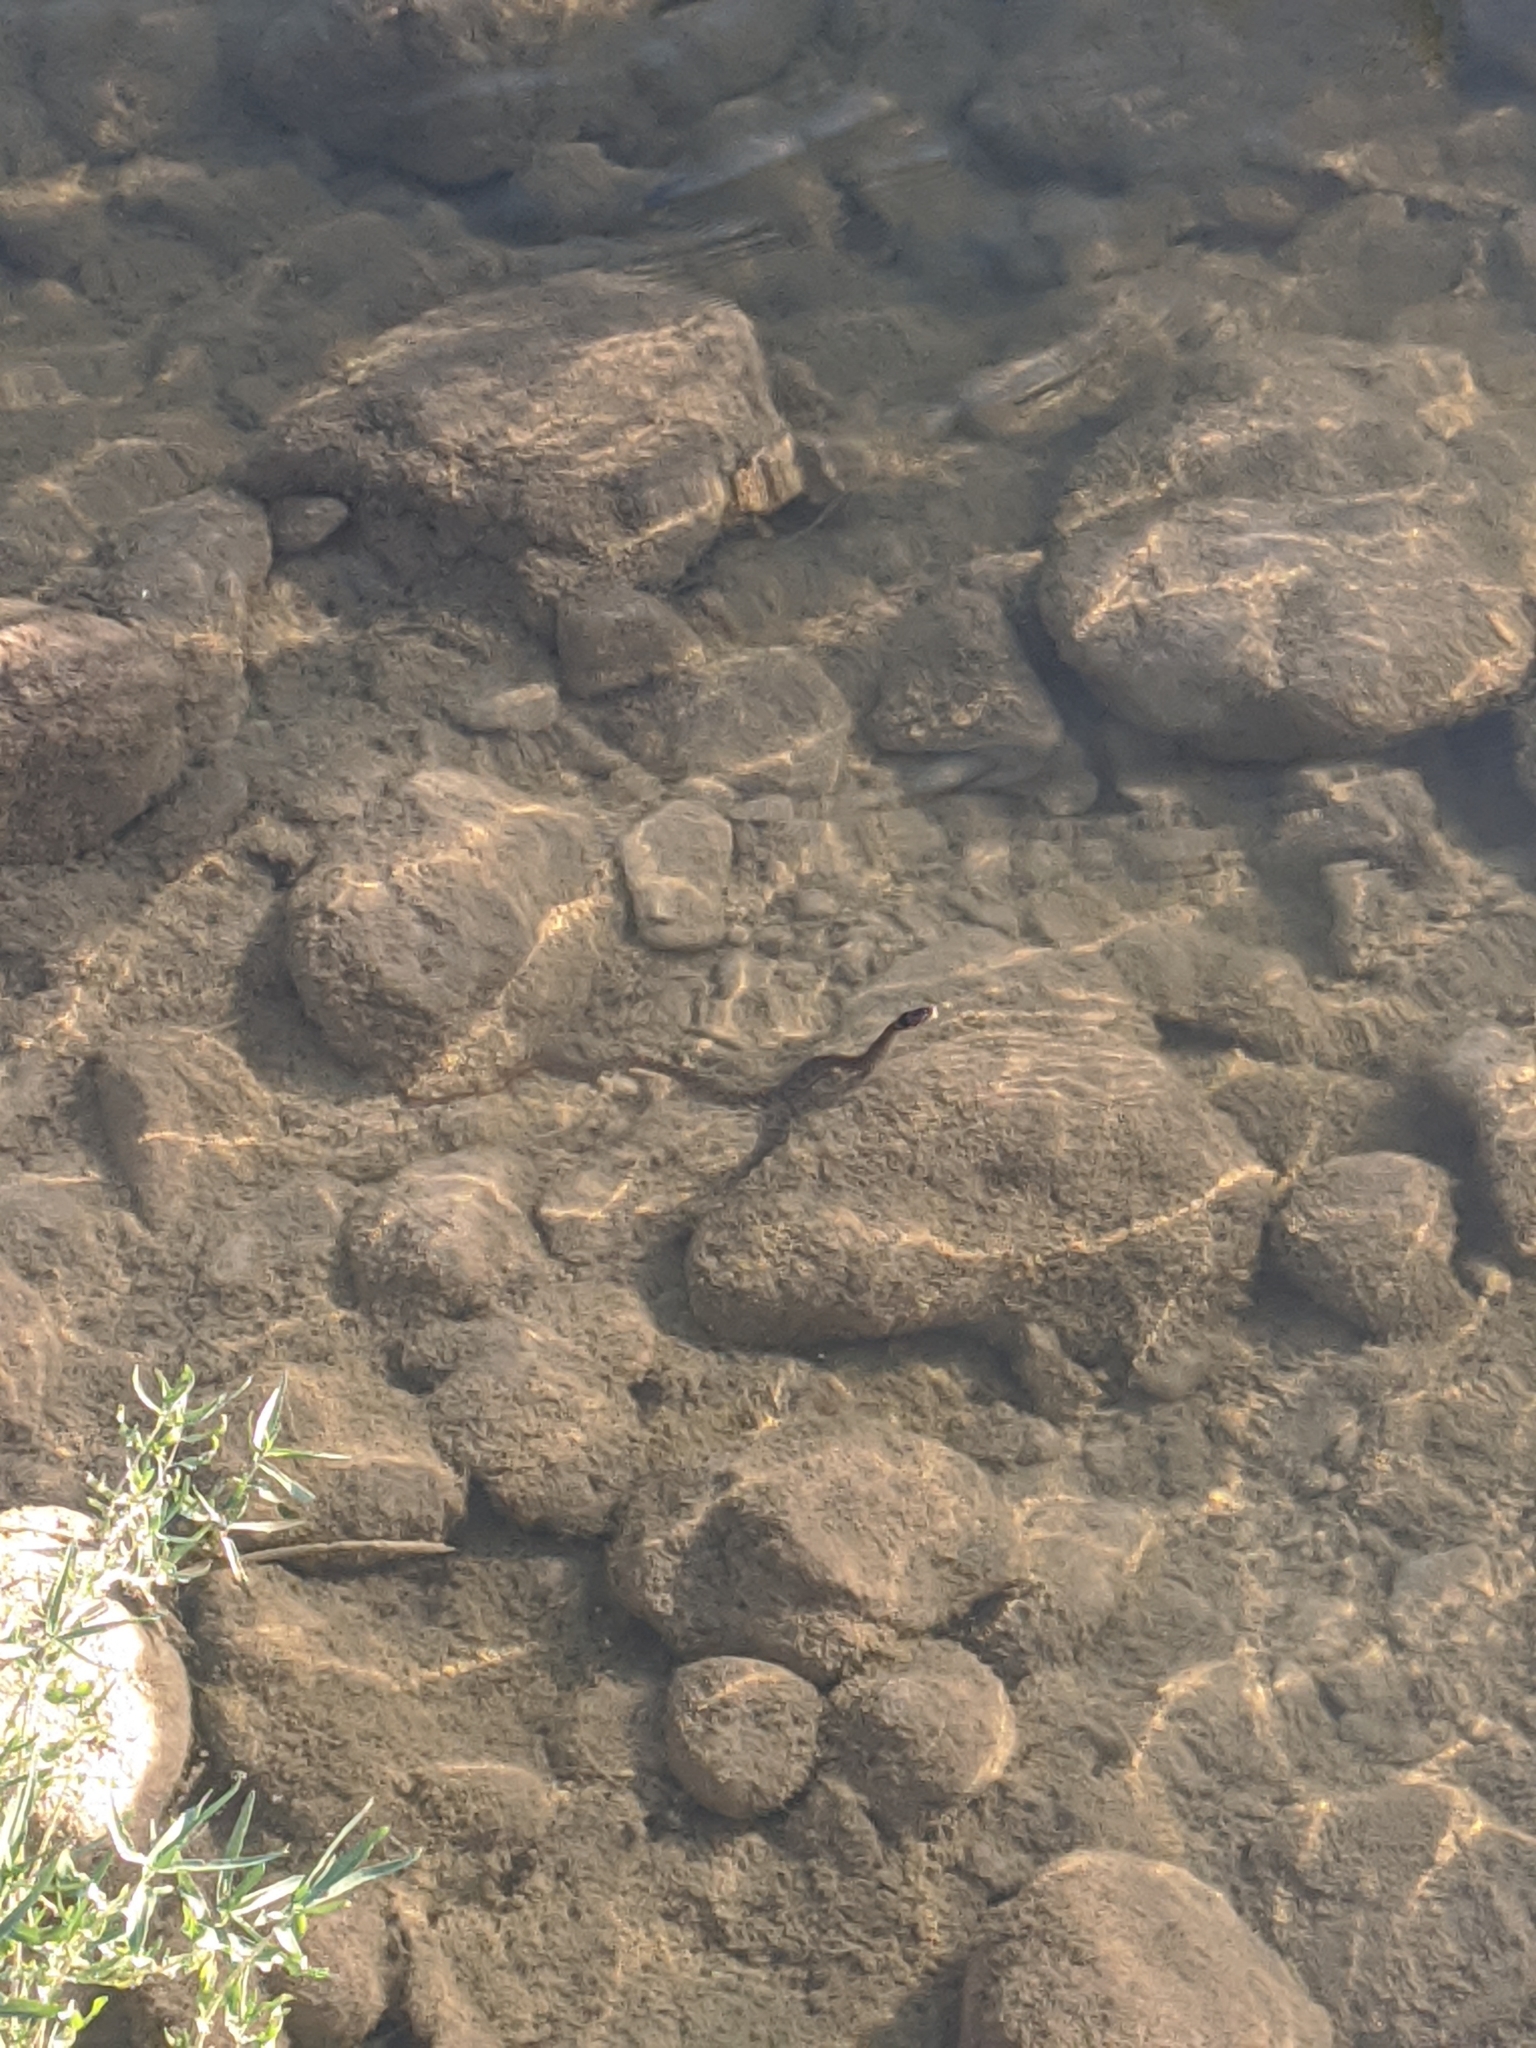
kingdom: Animalia
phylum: Chordata
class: Squamata
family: Colubridae
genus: Nerodia
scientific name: Nerodia rhombifer
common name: Diamondback water snake
